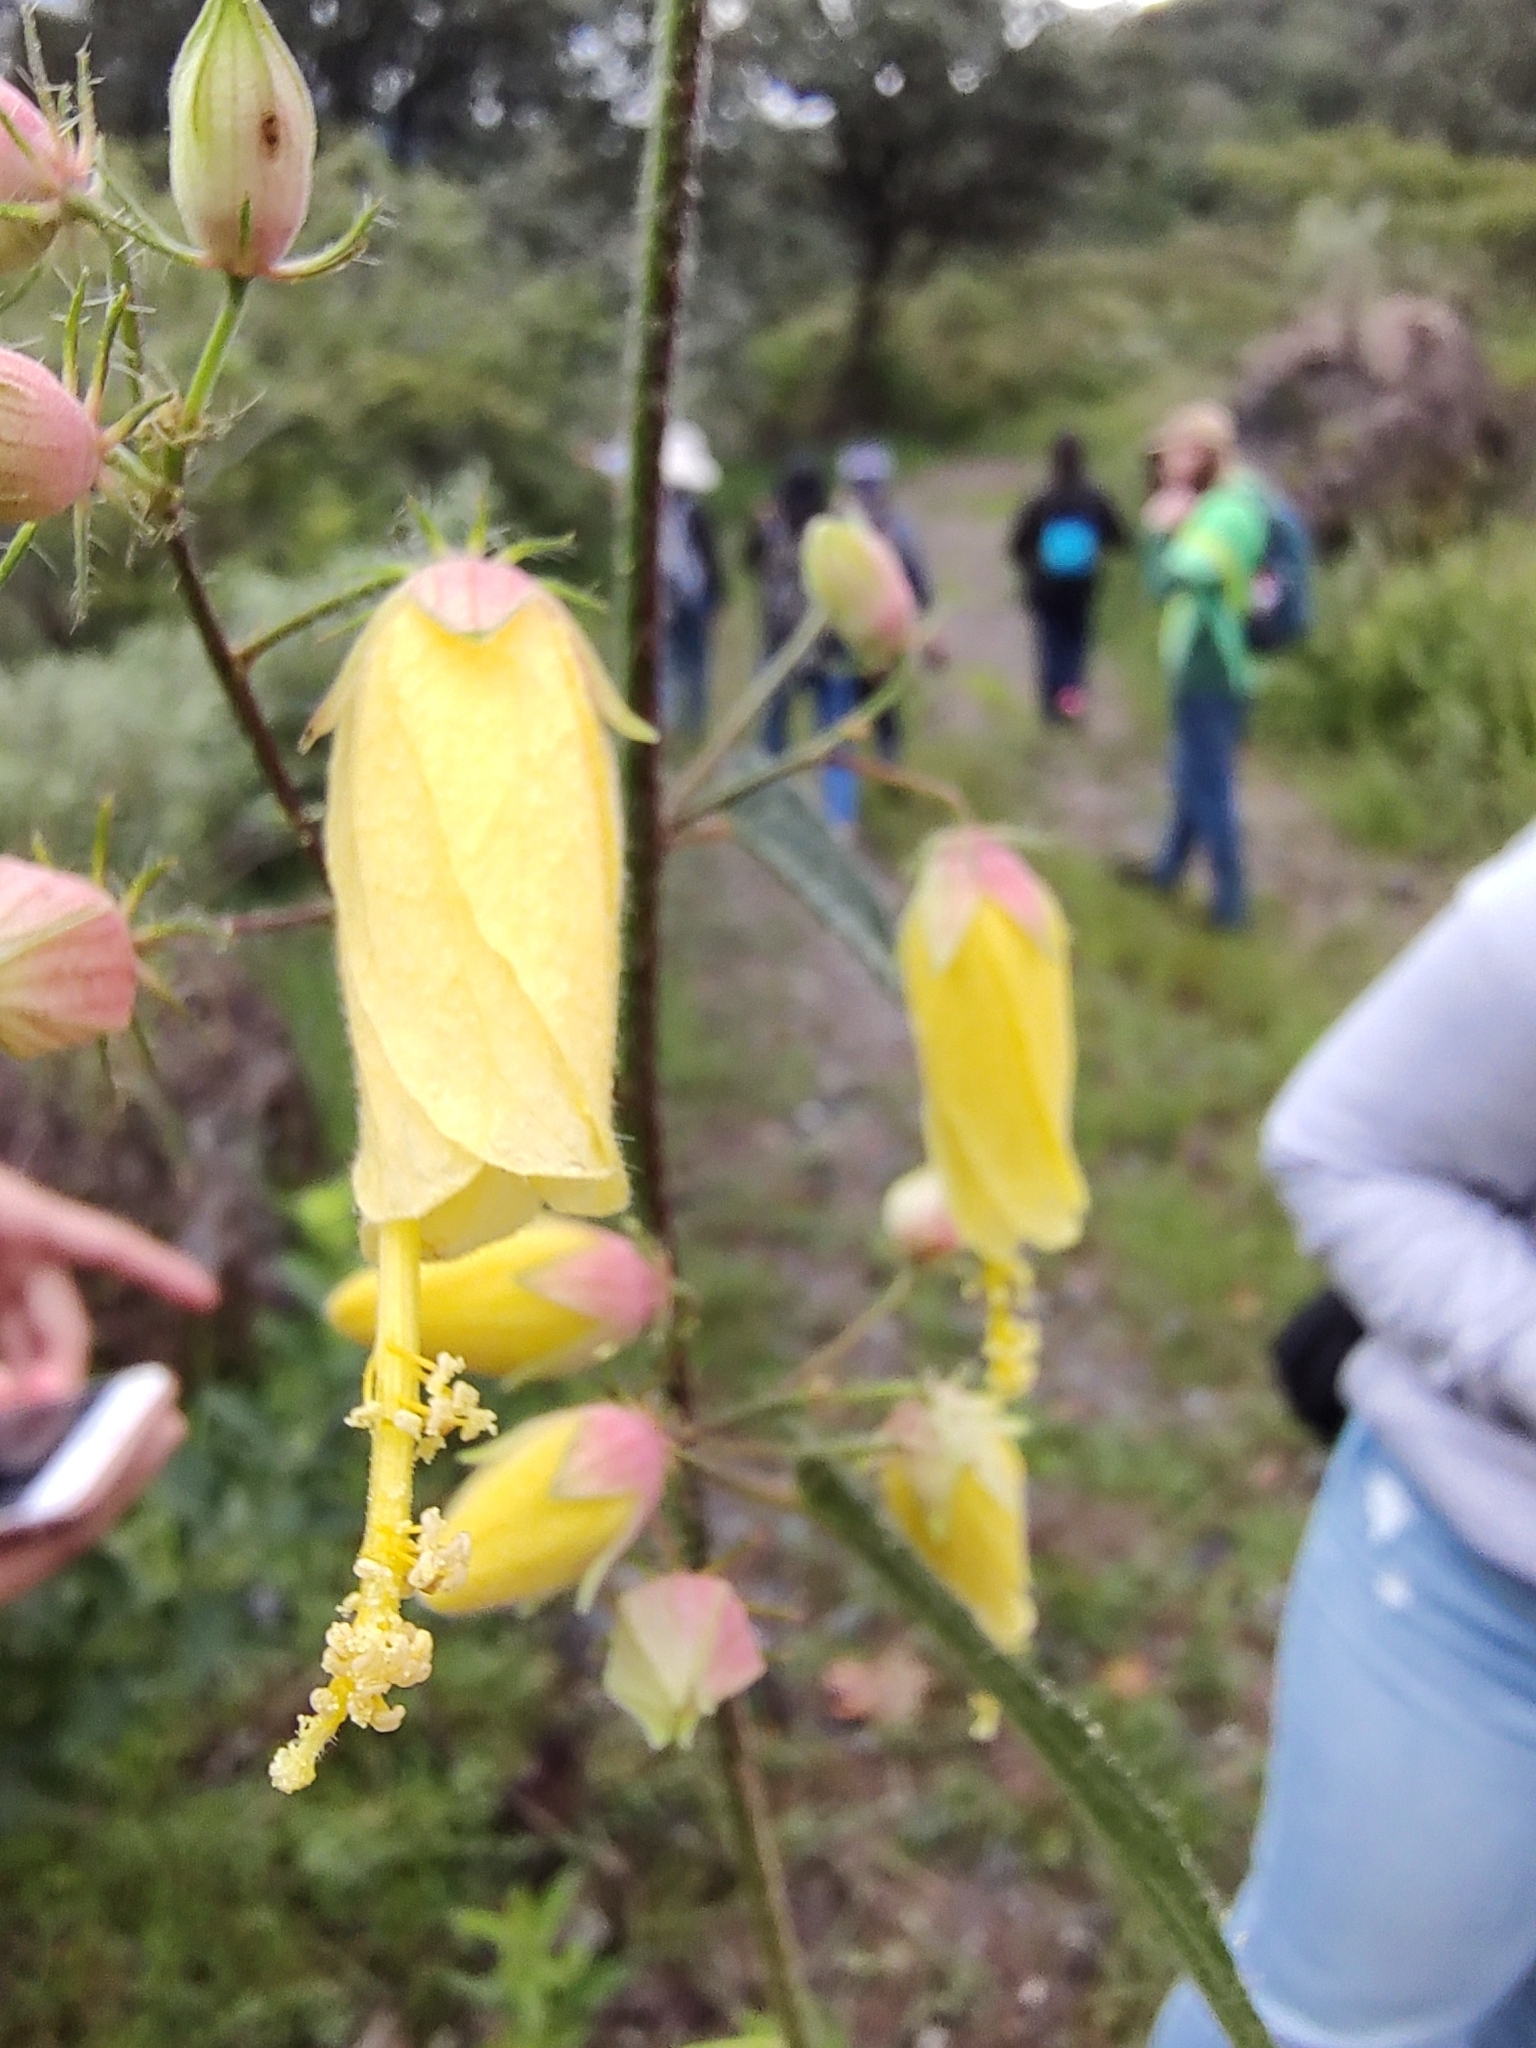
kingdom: Plantae
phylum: Tracheophyta
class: Magnoliopsida
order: Malvales
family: Malvaceae
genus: Kosteletzkya
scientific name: Kosteletzkya tubiflora
